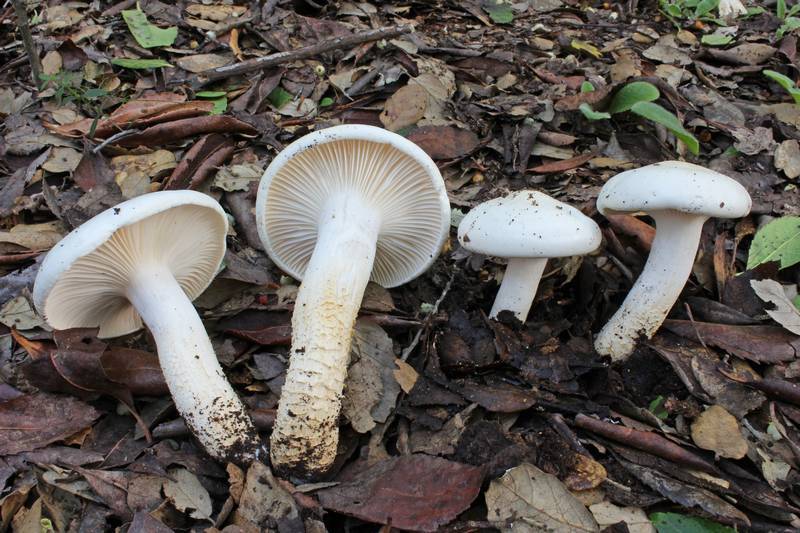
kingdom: Fungi
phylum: Basidiomycota
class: Agaricomycetes
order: Agaricales
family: Hygrophoraceae
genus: Hygrophorus
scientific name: Hygrophorus penarioides
